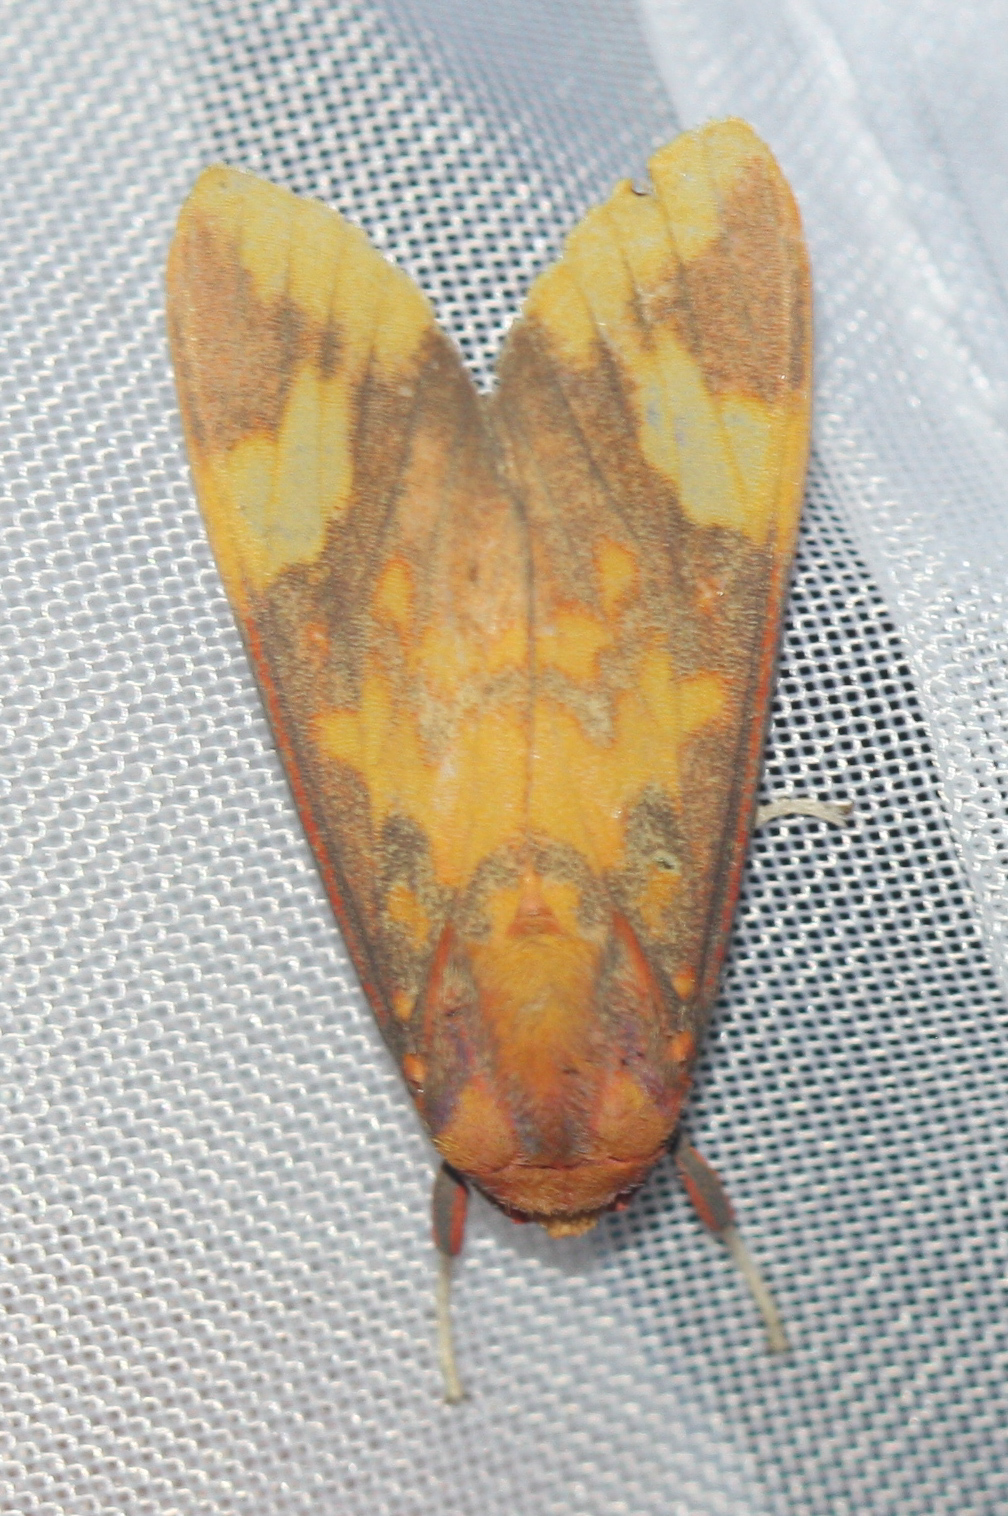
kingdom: Animalia
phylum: Arthropoda
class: Insecta
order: Lepidoptera
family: Erebidae
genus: Melese
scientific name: Melese laodamia
